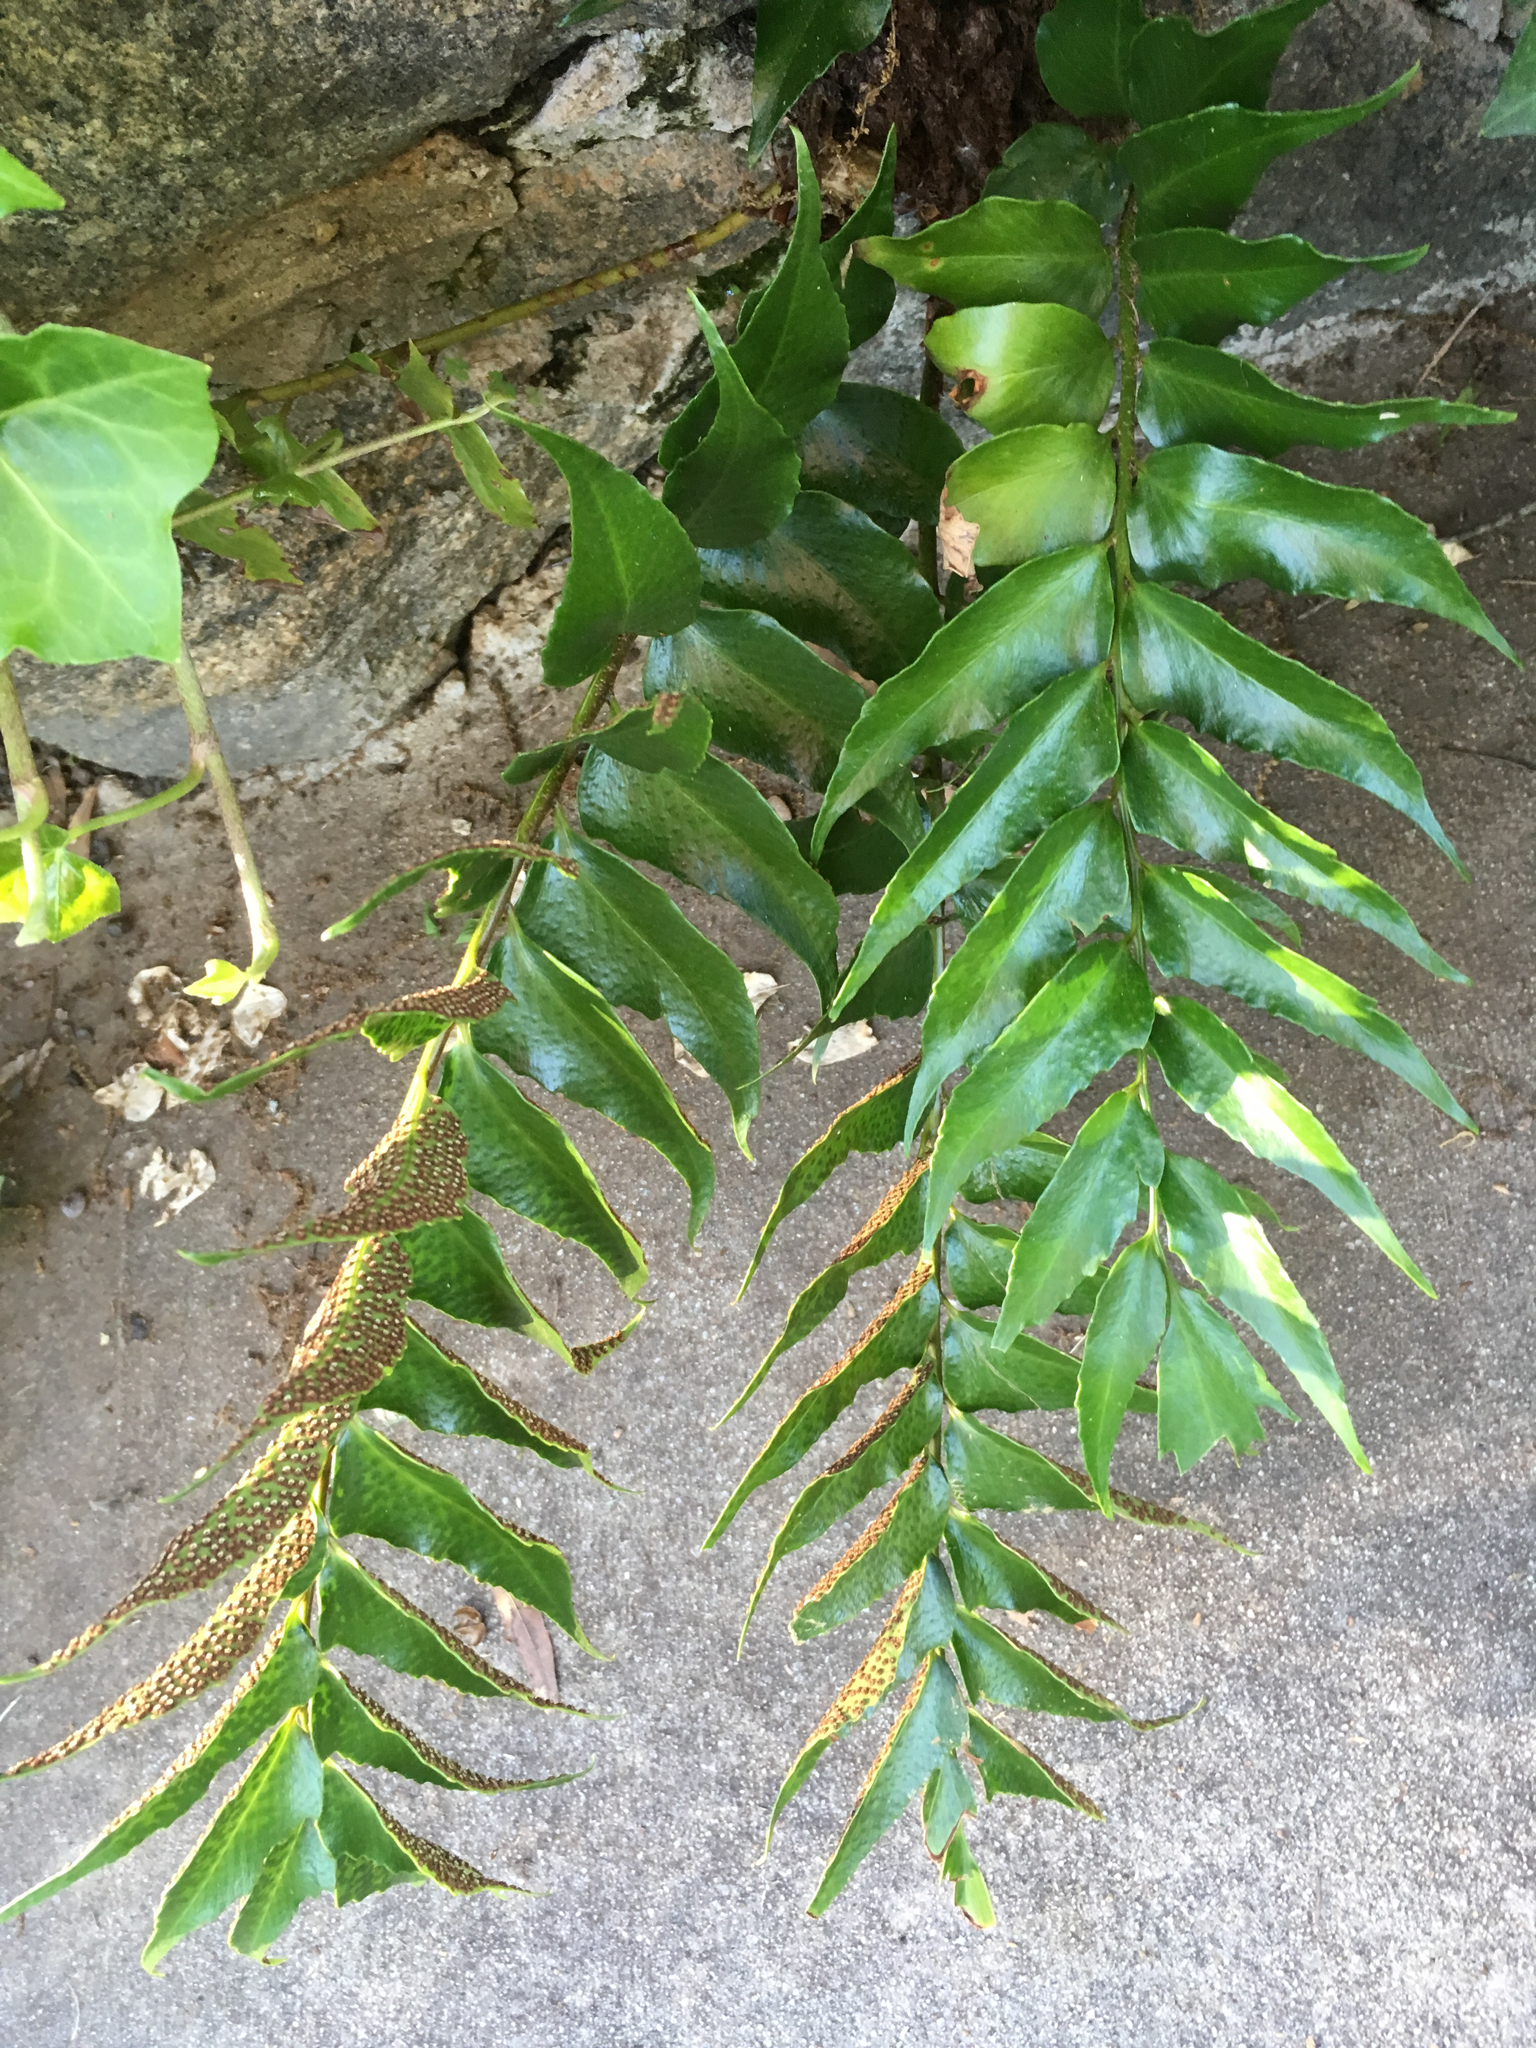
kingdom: Plantae
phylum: Tracheophyta
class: Polypodiopsida
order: Polypodiales
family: Dryopteridaceae
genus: Cyrtomium
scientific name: Cyrtomium falcatum
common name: House holly-fern
